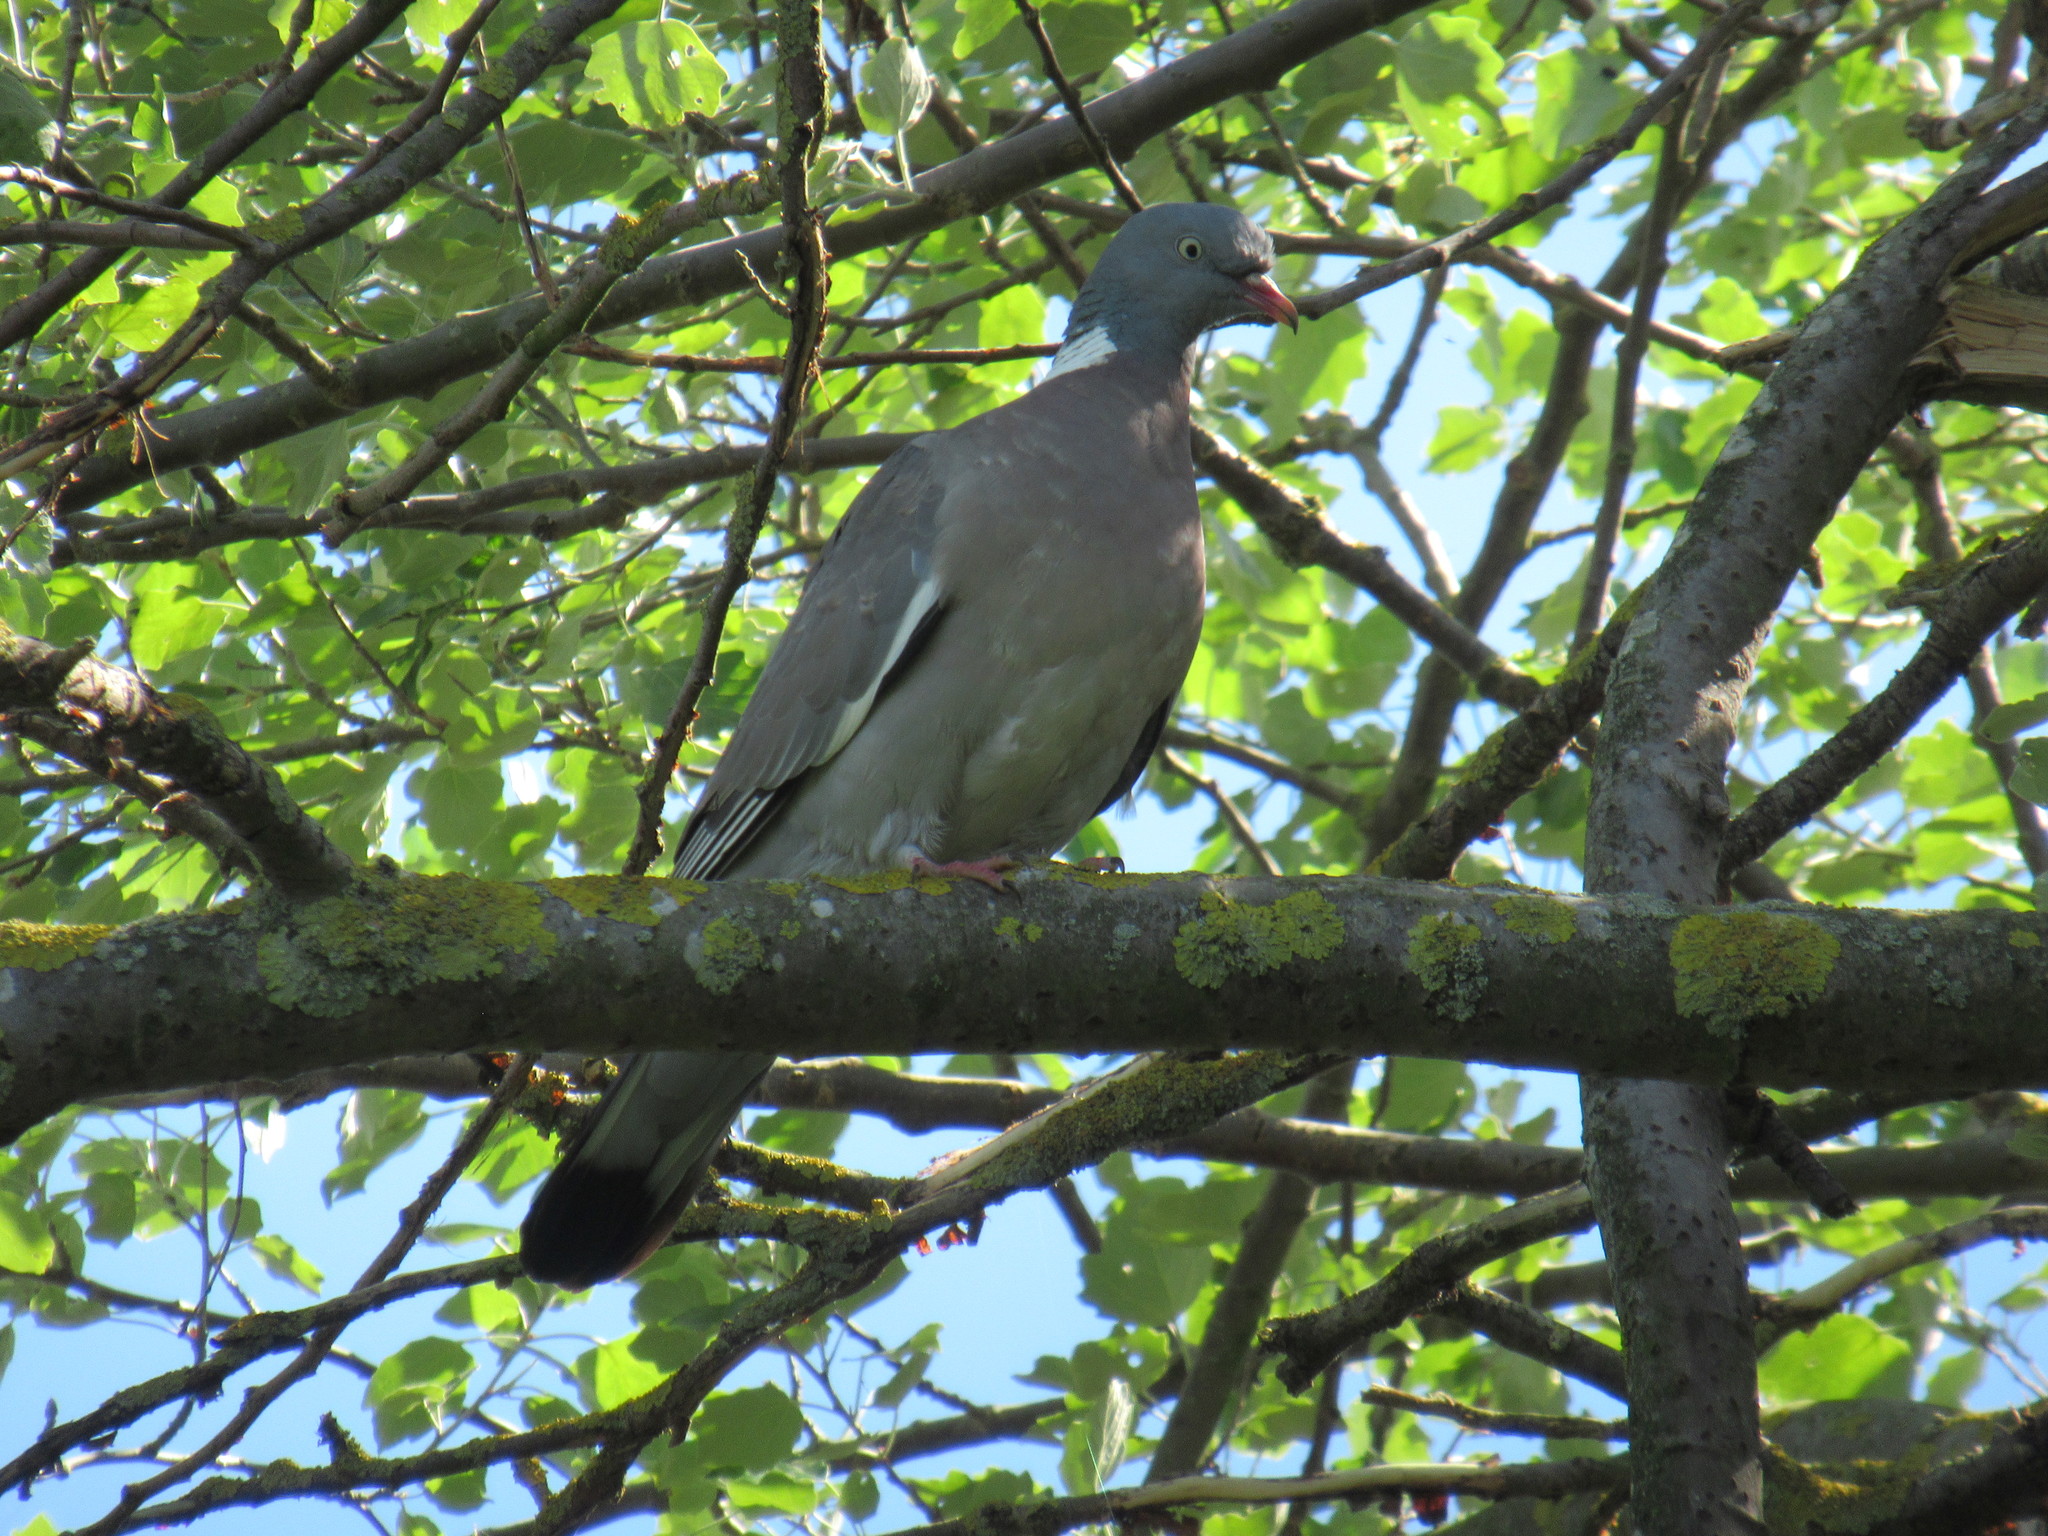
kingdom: Animalia
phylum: Chordata
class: Aves
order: Columbiformes
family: Columbidae
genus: Columba
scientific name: Columba palumbus
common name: Common wood pigeon
